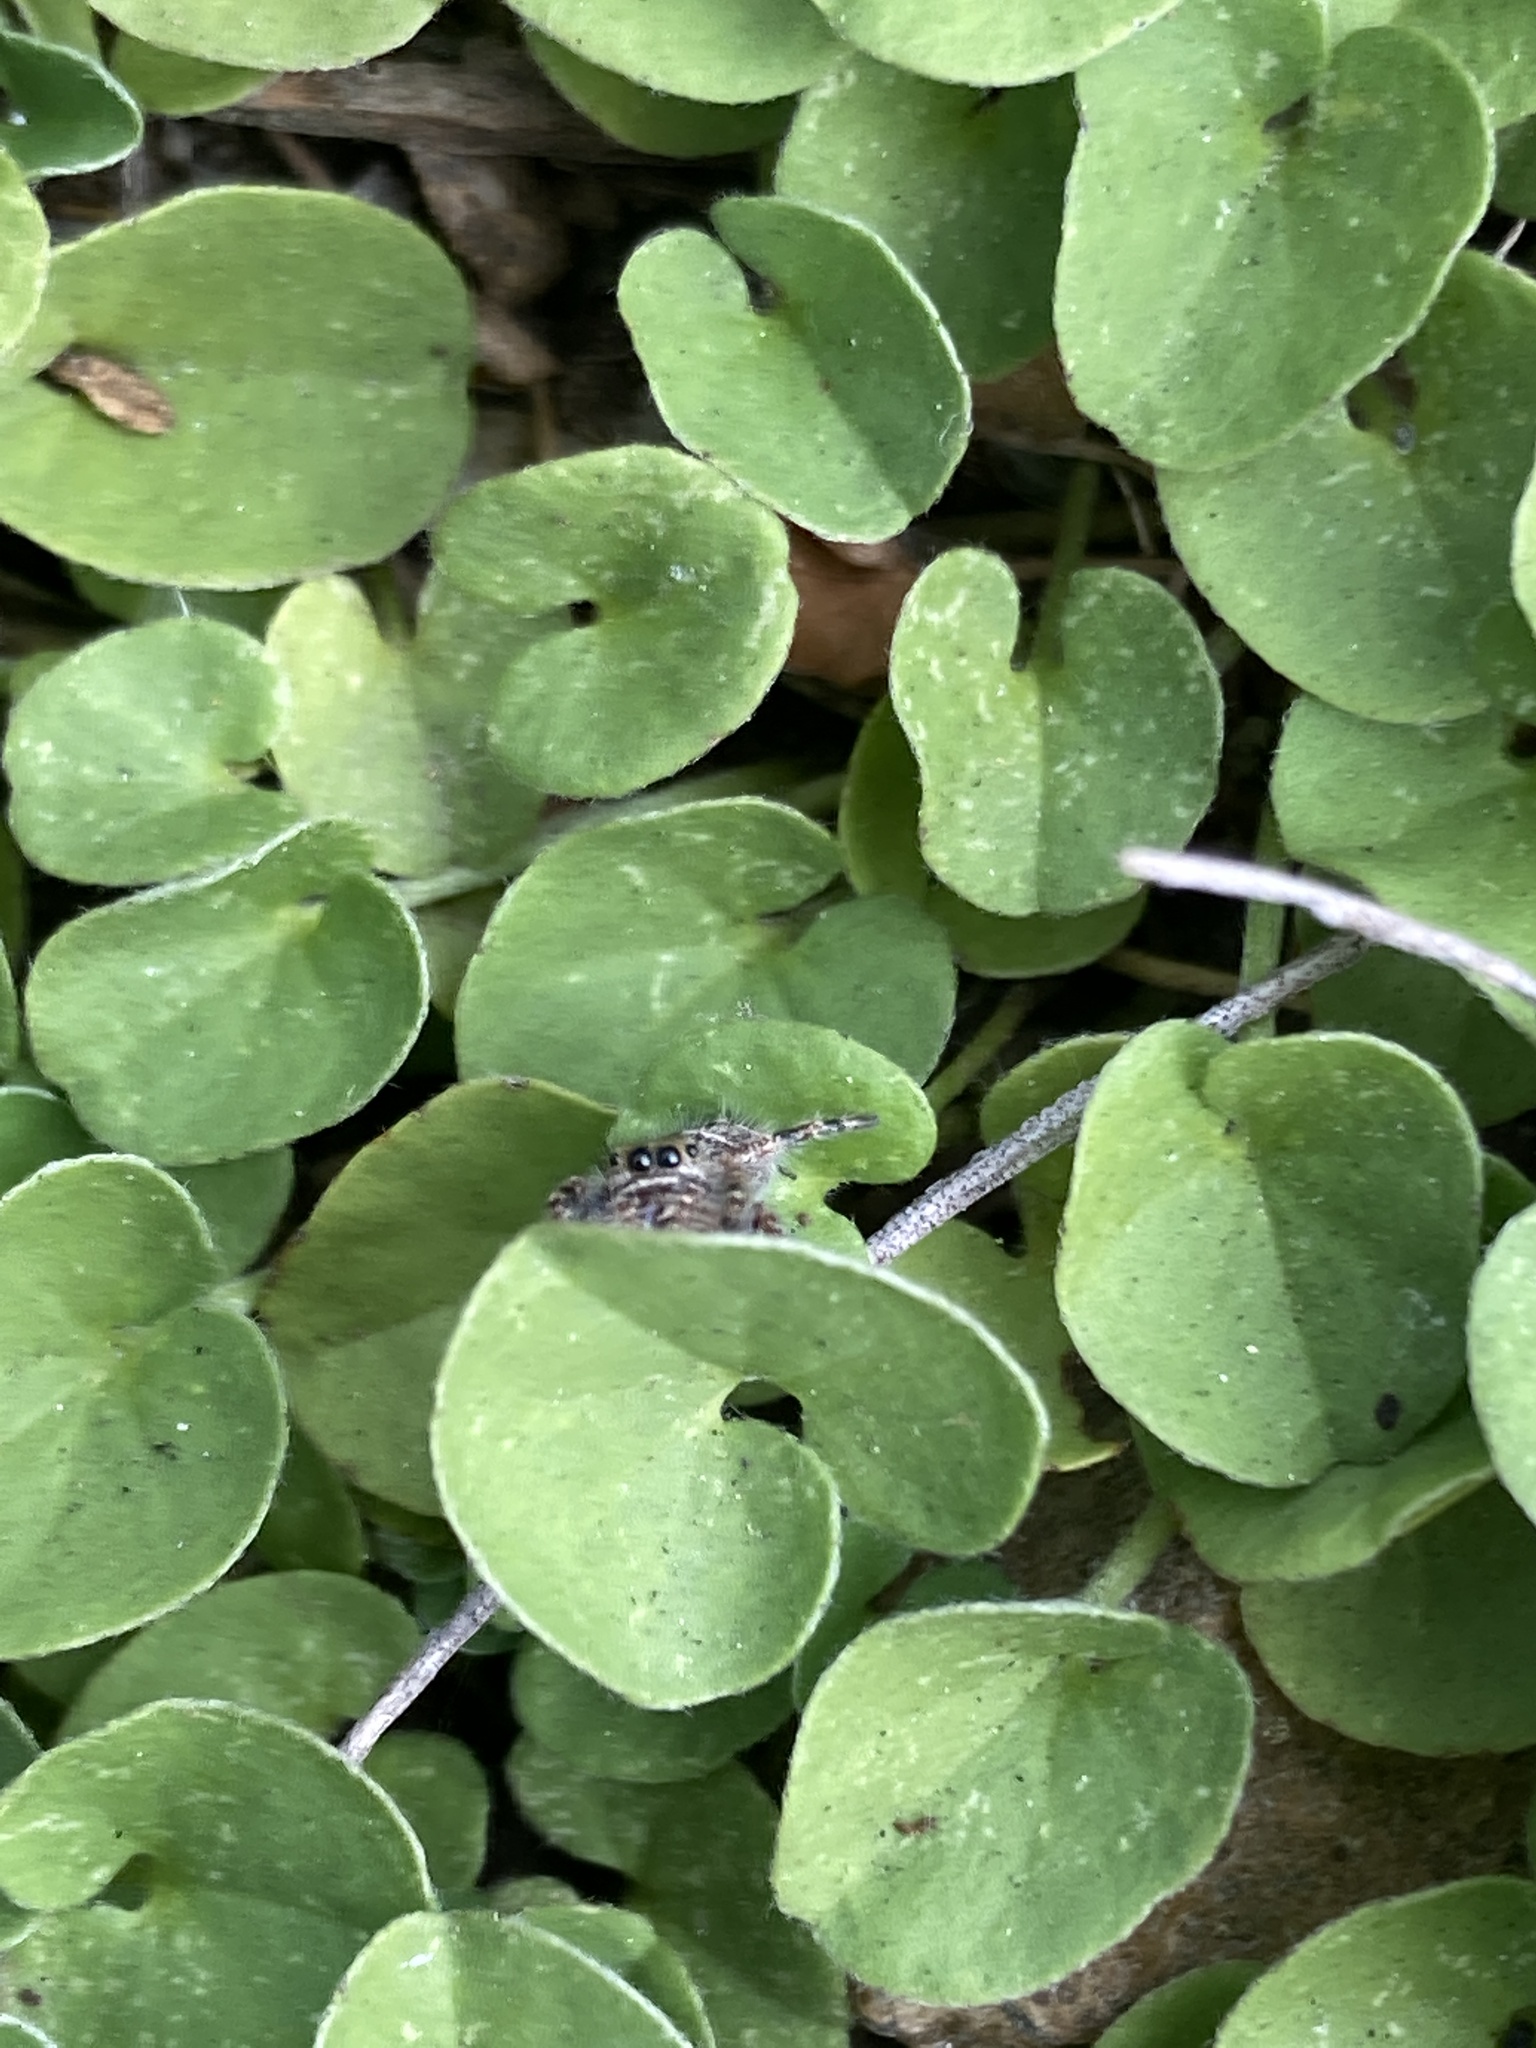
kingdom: Animalia
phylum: Arthropoda
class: Arachnida
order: Araneae
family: Salticidae
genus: Phidippus
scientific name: Phidippus audax
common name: Bold jumper
